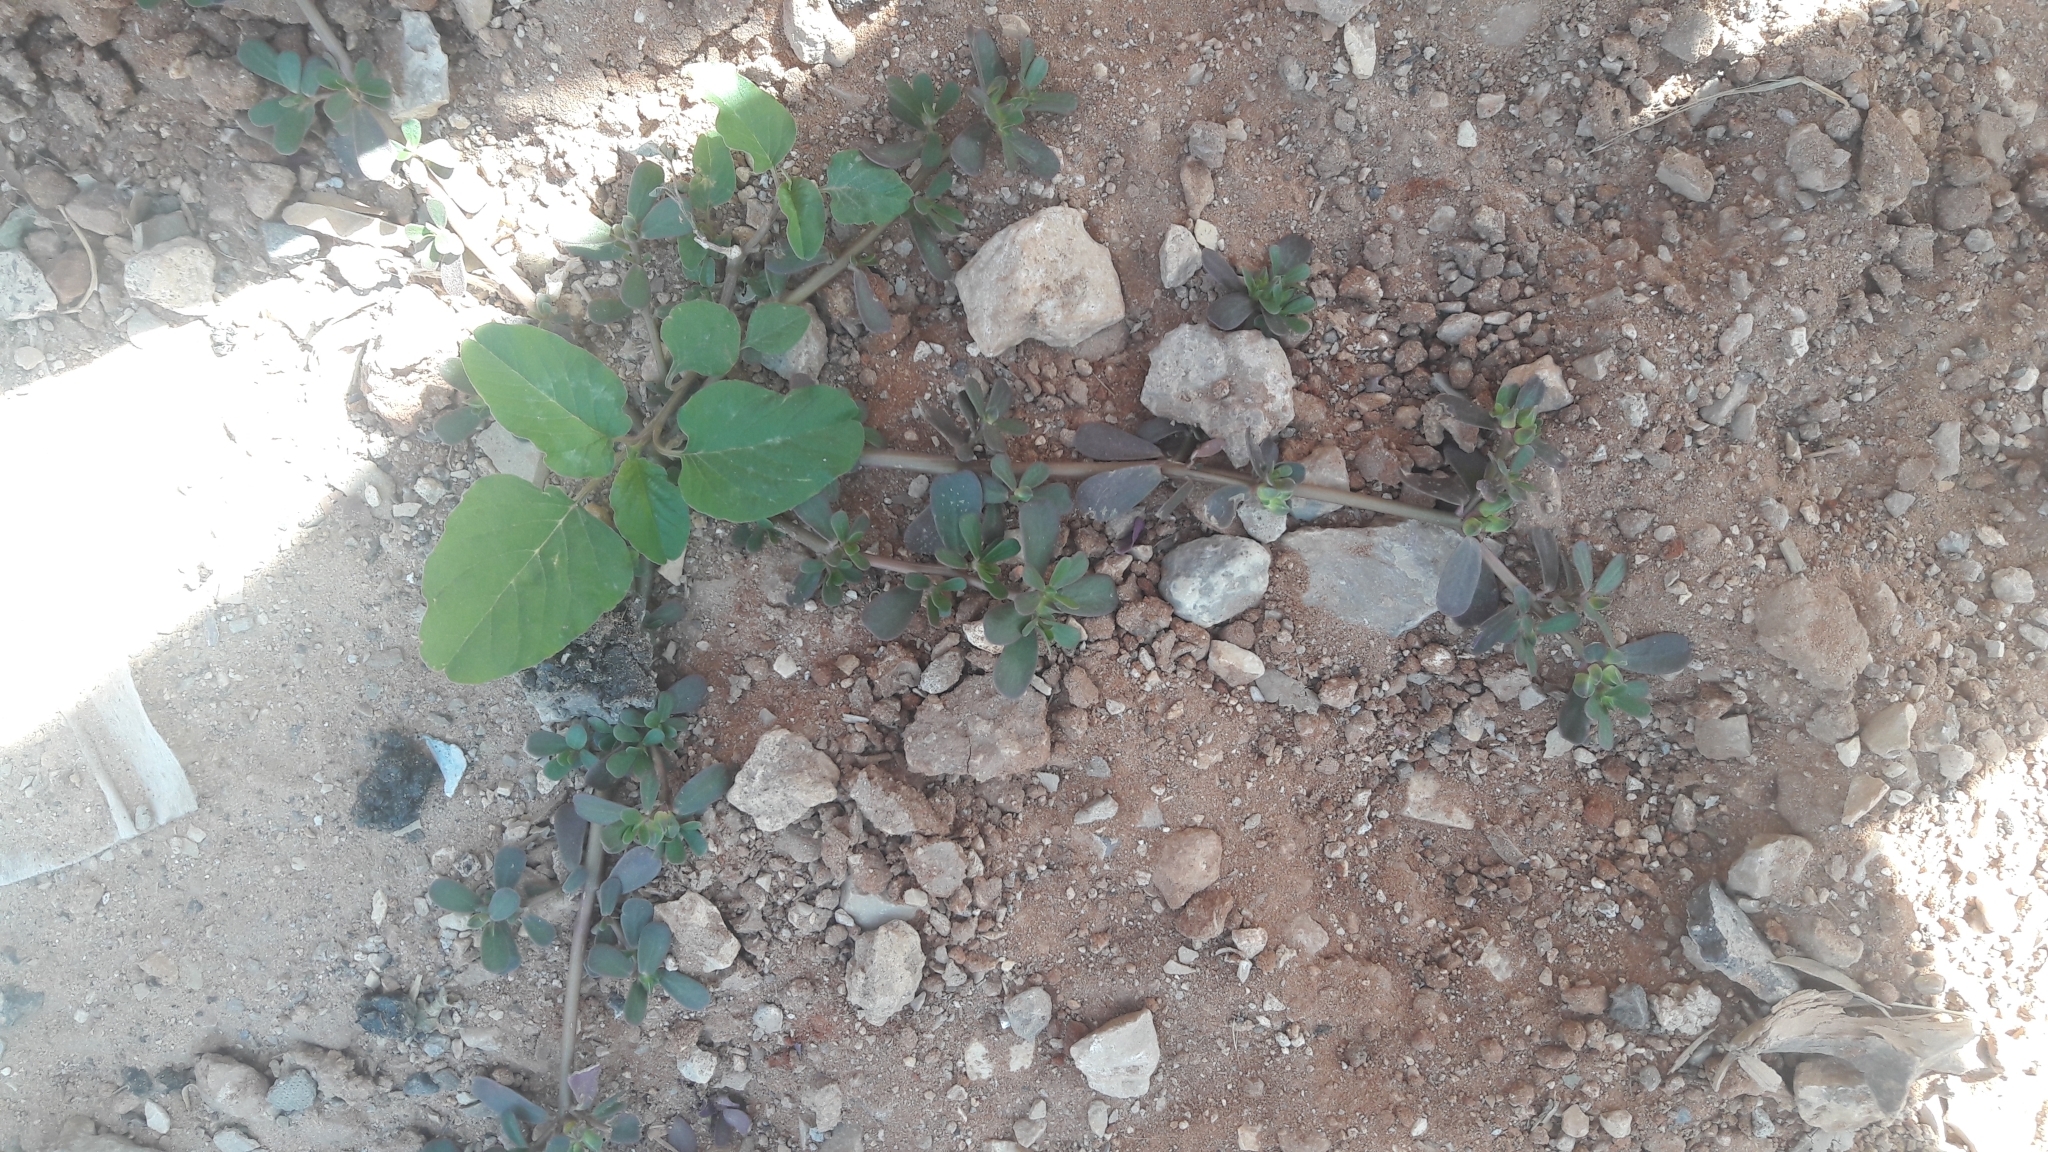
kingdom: Plantae
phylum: Tracheophyta
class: Magnoliopsida
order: Caryophyllales
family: Portulacaceae
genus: Portulaca
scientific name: Portulaca oleracea
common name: Common purslane
